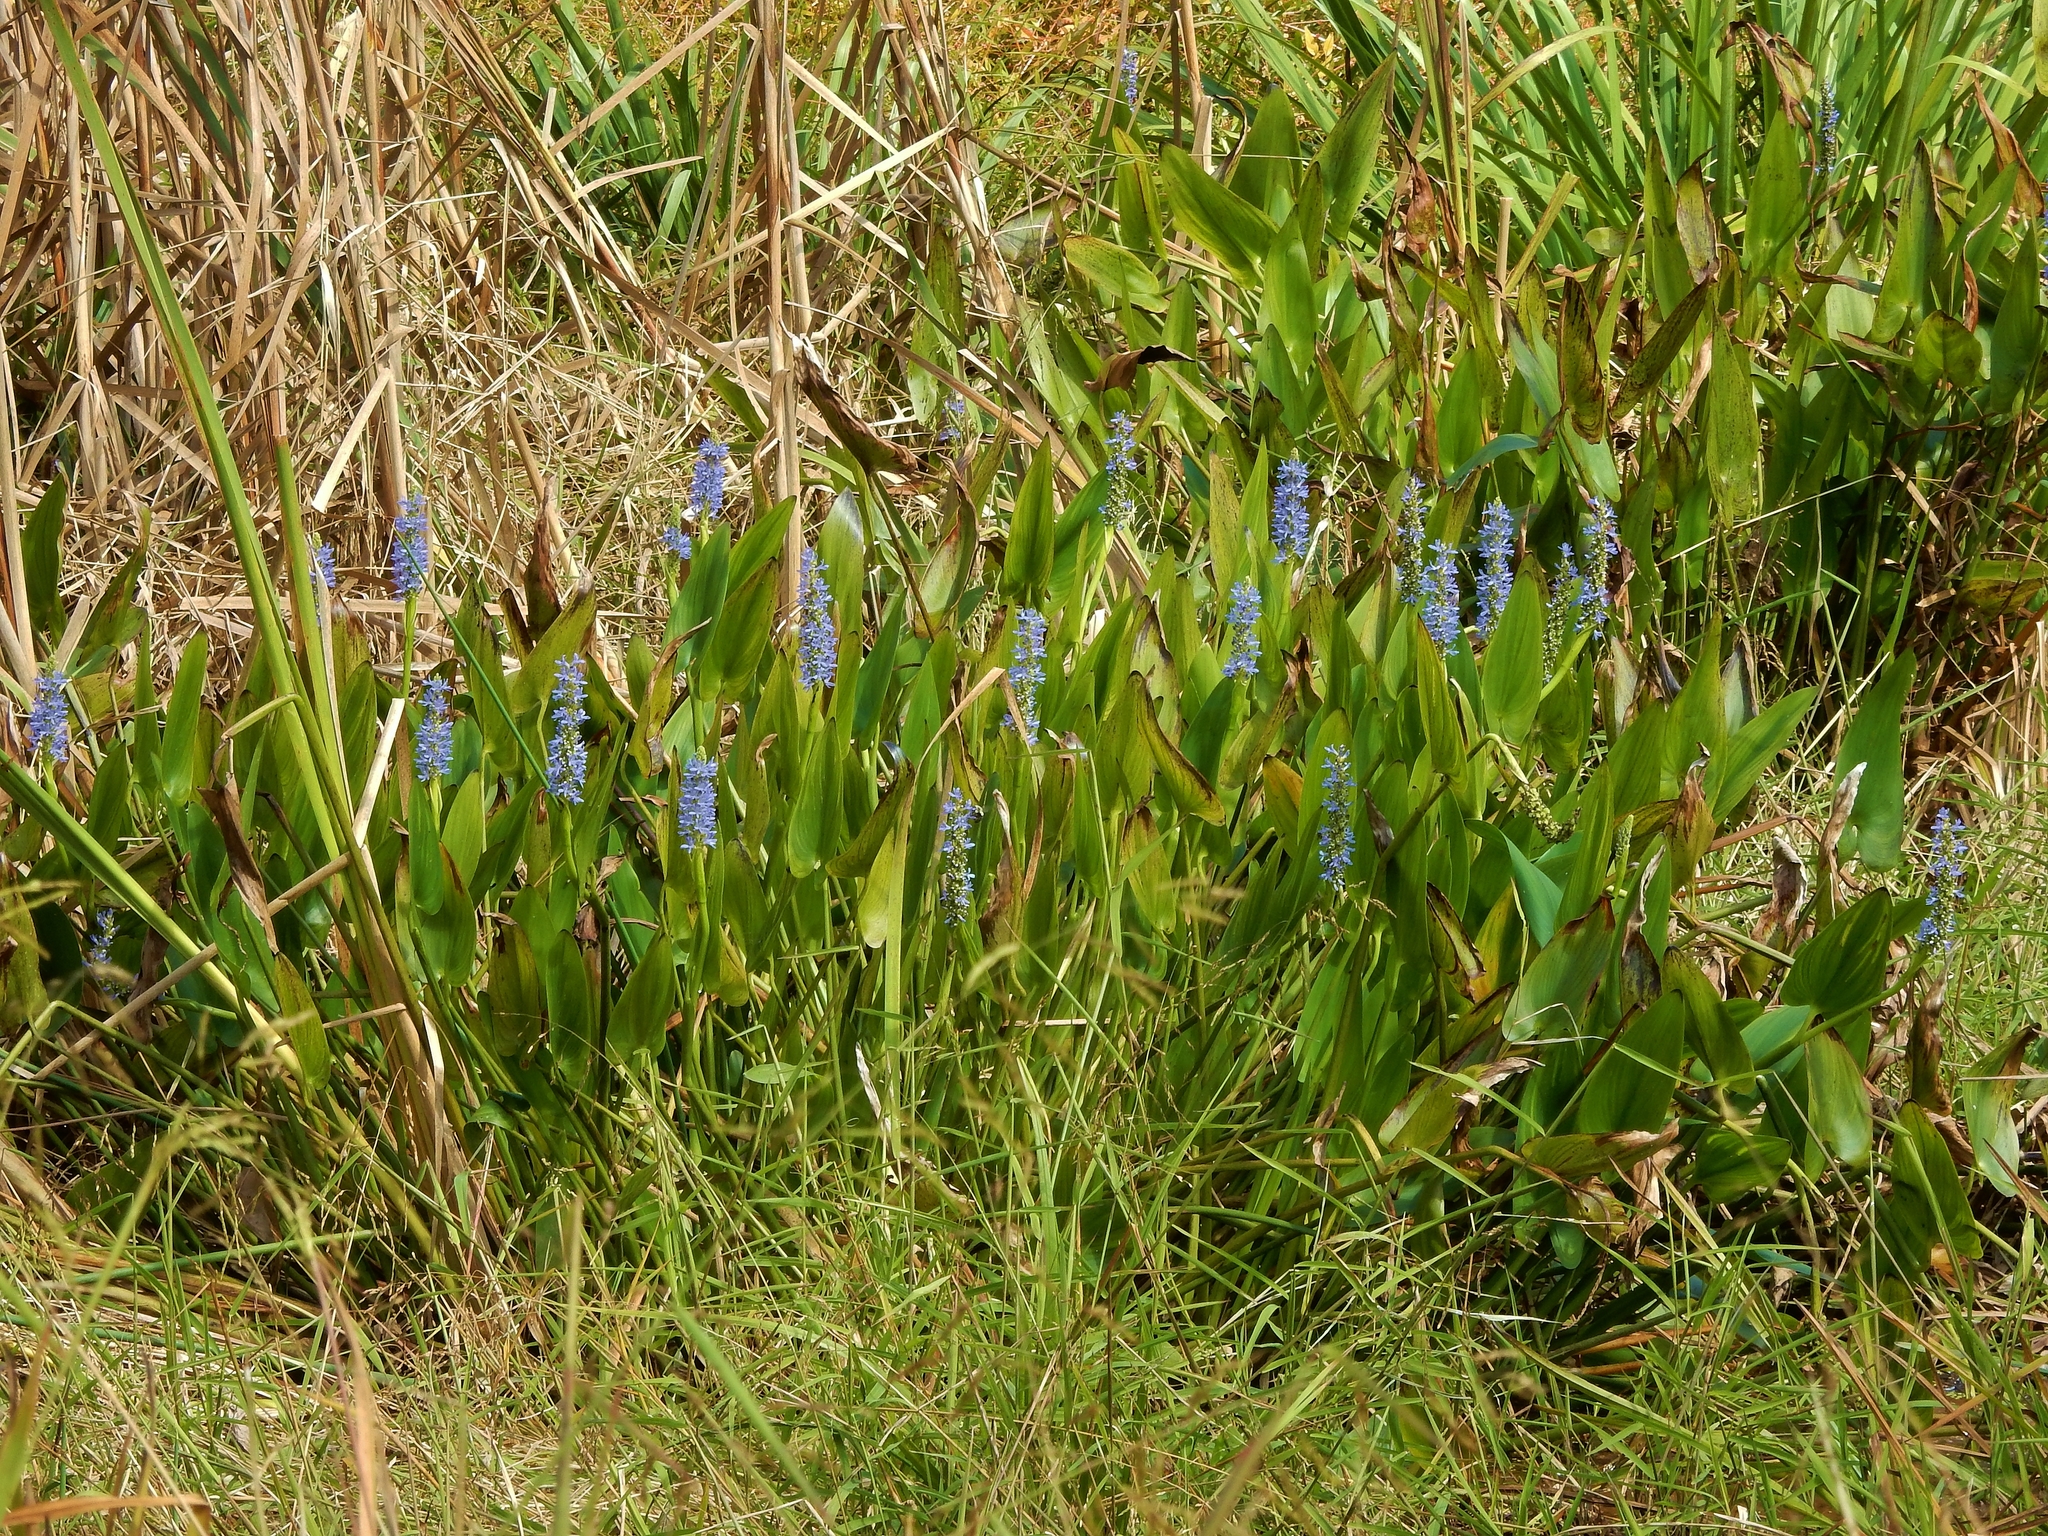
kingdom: Plantae
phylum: Tracheophyta
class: Liliopsida
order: Commelinales
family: Pontederiaceae
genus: Pontederia
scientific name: Pontederia cordata
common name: Pickerelweed
